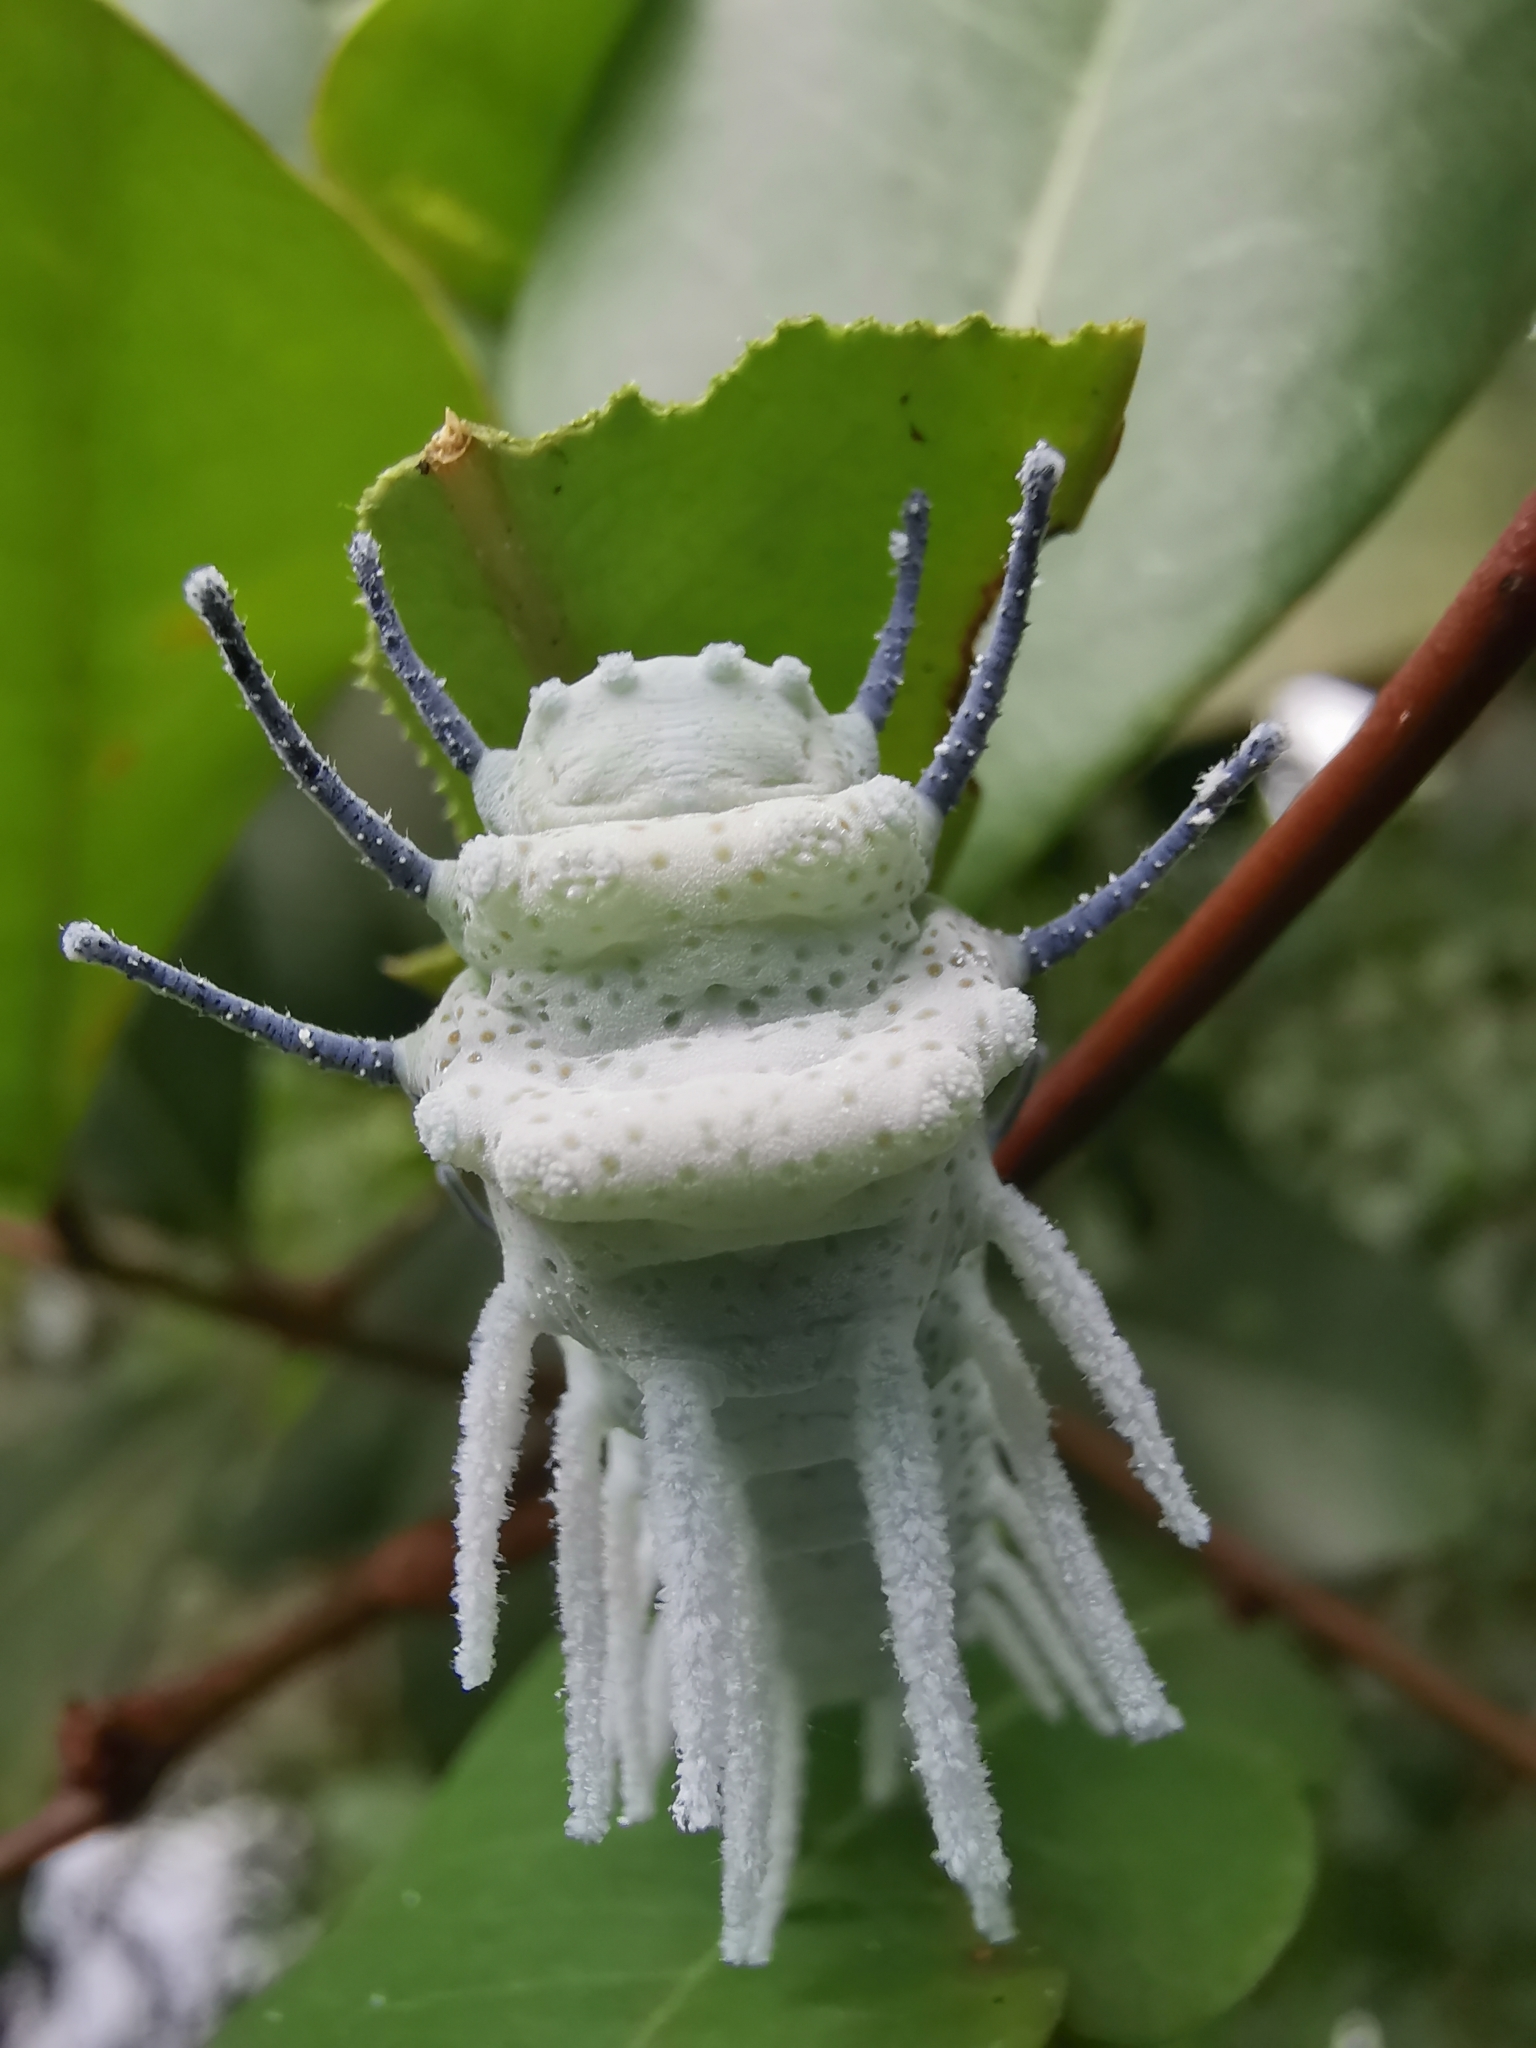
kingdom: Animalia
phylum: Arthropoda
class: Insecta
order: Lepidoptera
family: Saturniidae
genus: Attacus
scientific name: Attacus atlas
